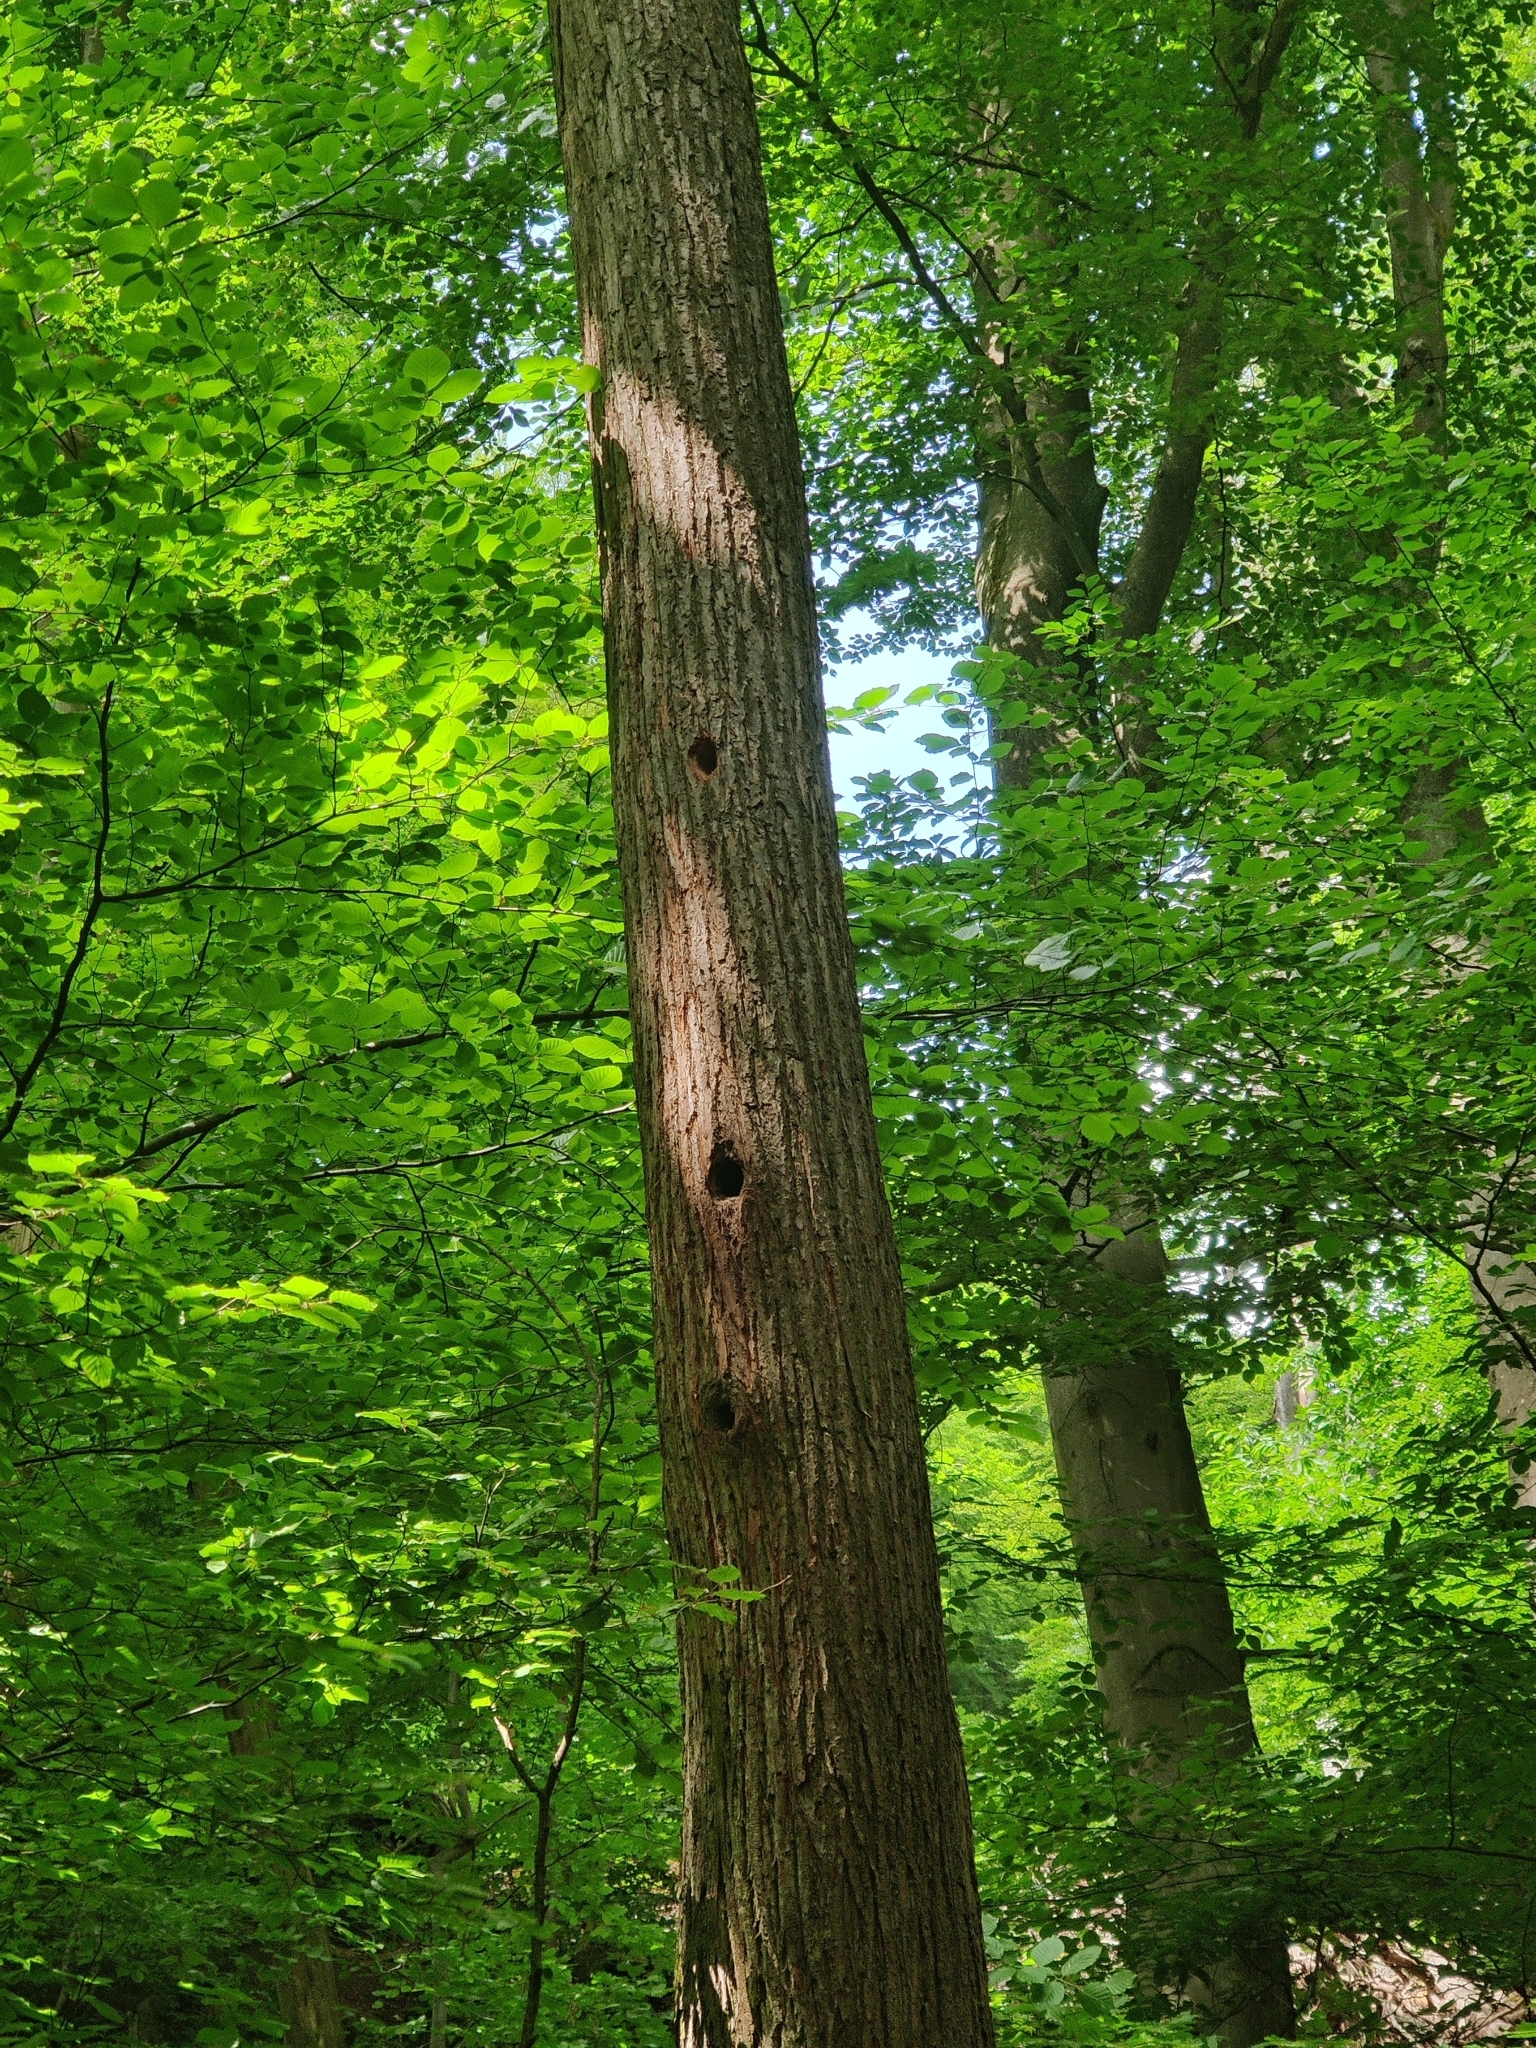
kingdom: Animalia
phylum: Chordata
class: Aves
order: Piciformes
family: Picidae
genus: Dendrocopos
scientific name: Dendrocopos major
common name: Great spotted woodpecker
